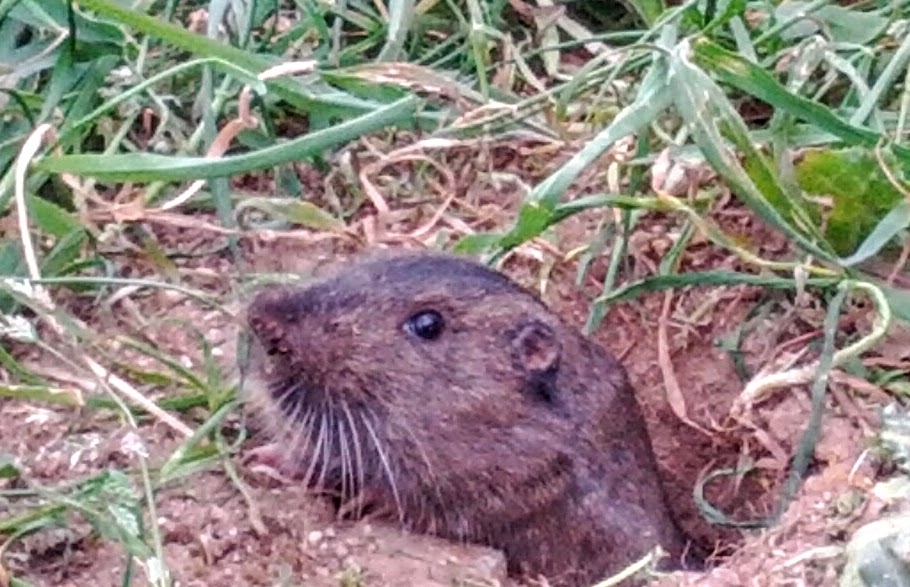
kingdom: Animalia
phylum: Chordata
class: Mammalia
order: Rodentia
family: Geomyidae
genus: Thomomys
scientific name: Thomomys bottae
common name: Botta's pocket gopher
